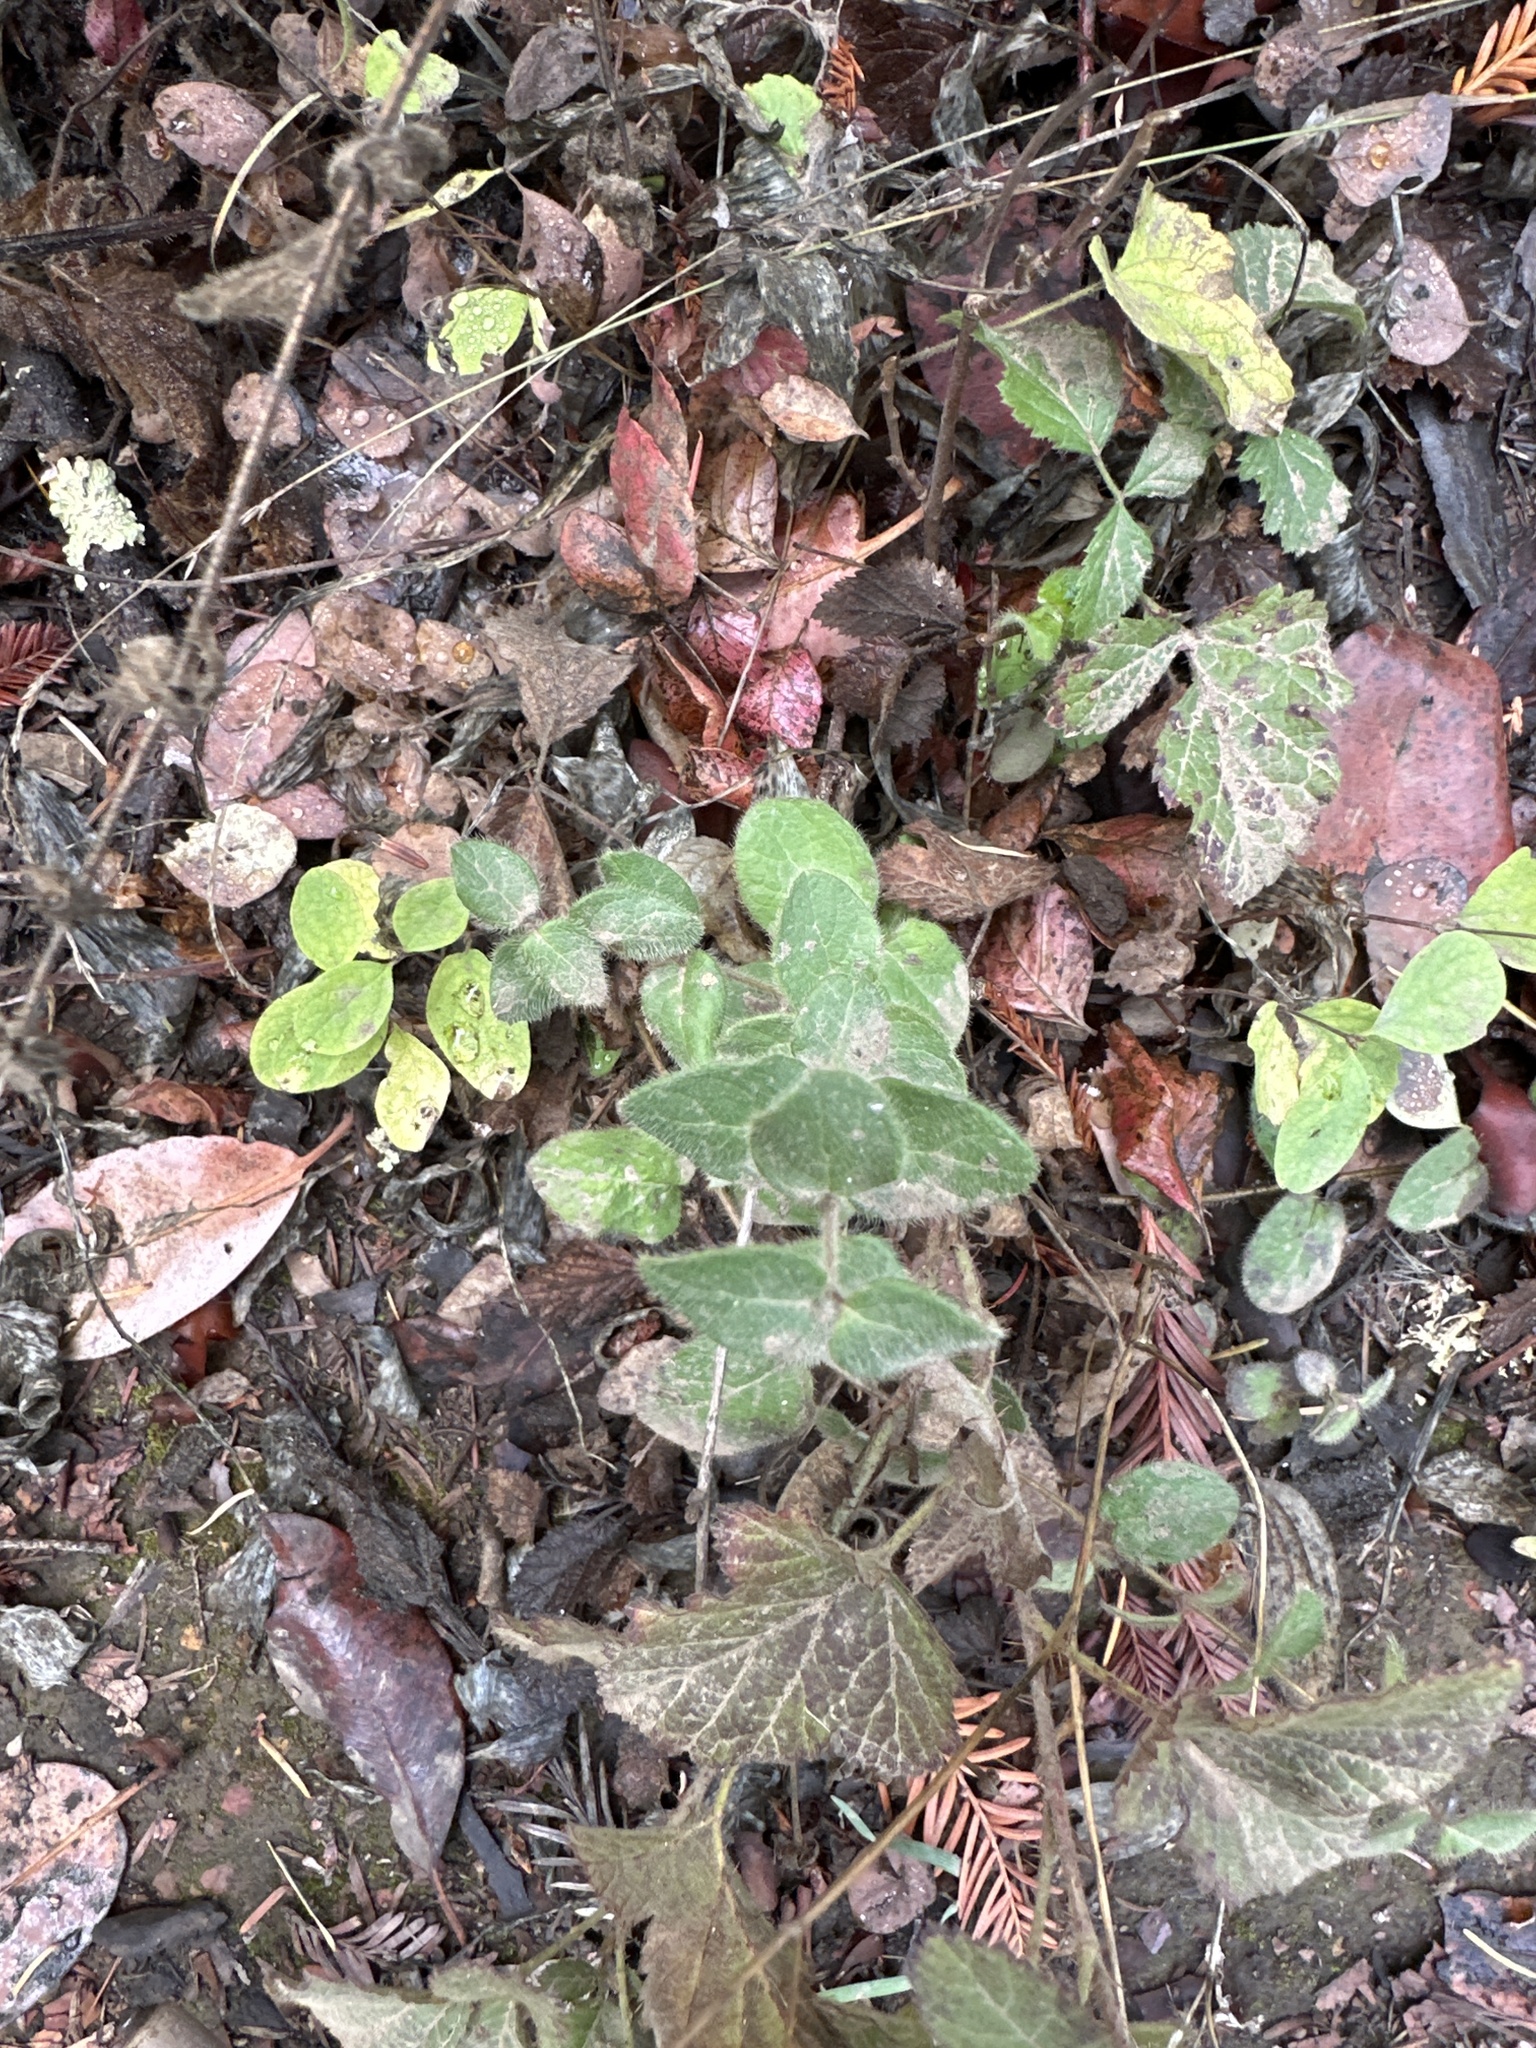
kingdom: Plantae
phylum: Tracheophyta
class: Magnoliopsida
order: Dipsacales
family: Caprifoliaceae
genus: Lonicera
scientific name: Lonicera hispidula
